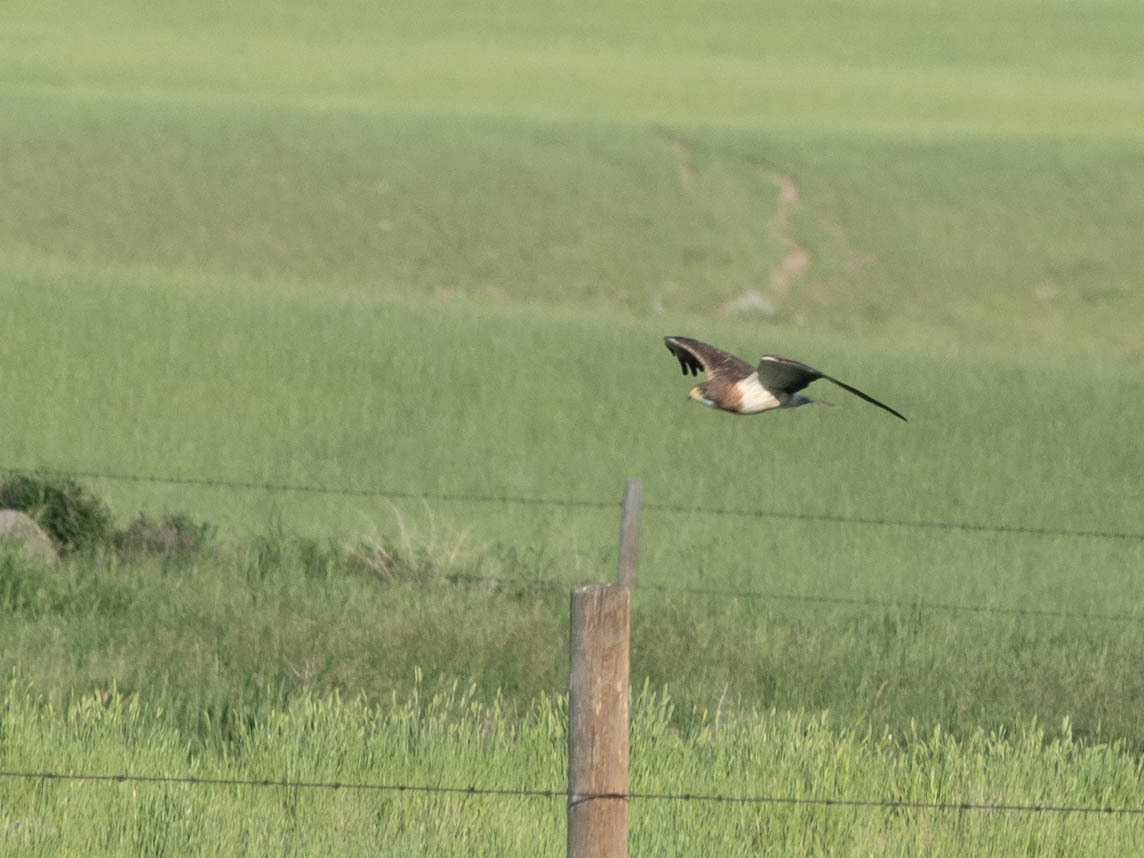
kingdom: Animalia
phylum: Chordata
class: Aves
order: Accipitriformes
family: Accipitridae
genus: Buteo
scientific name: Buteo swainsoni
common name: Swainson's hawk
